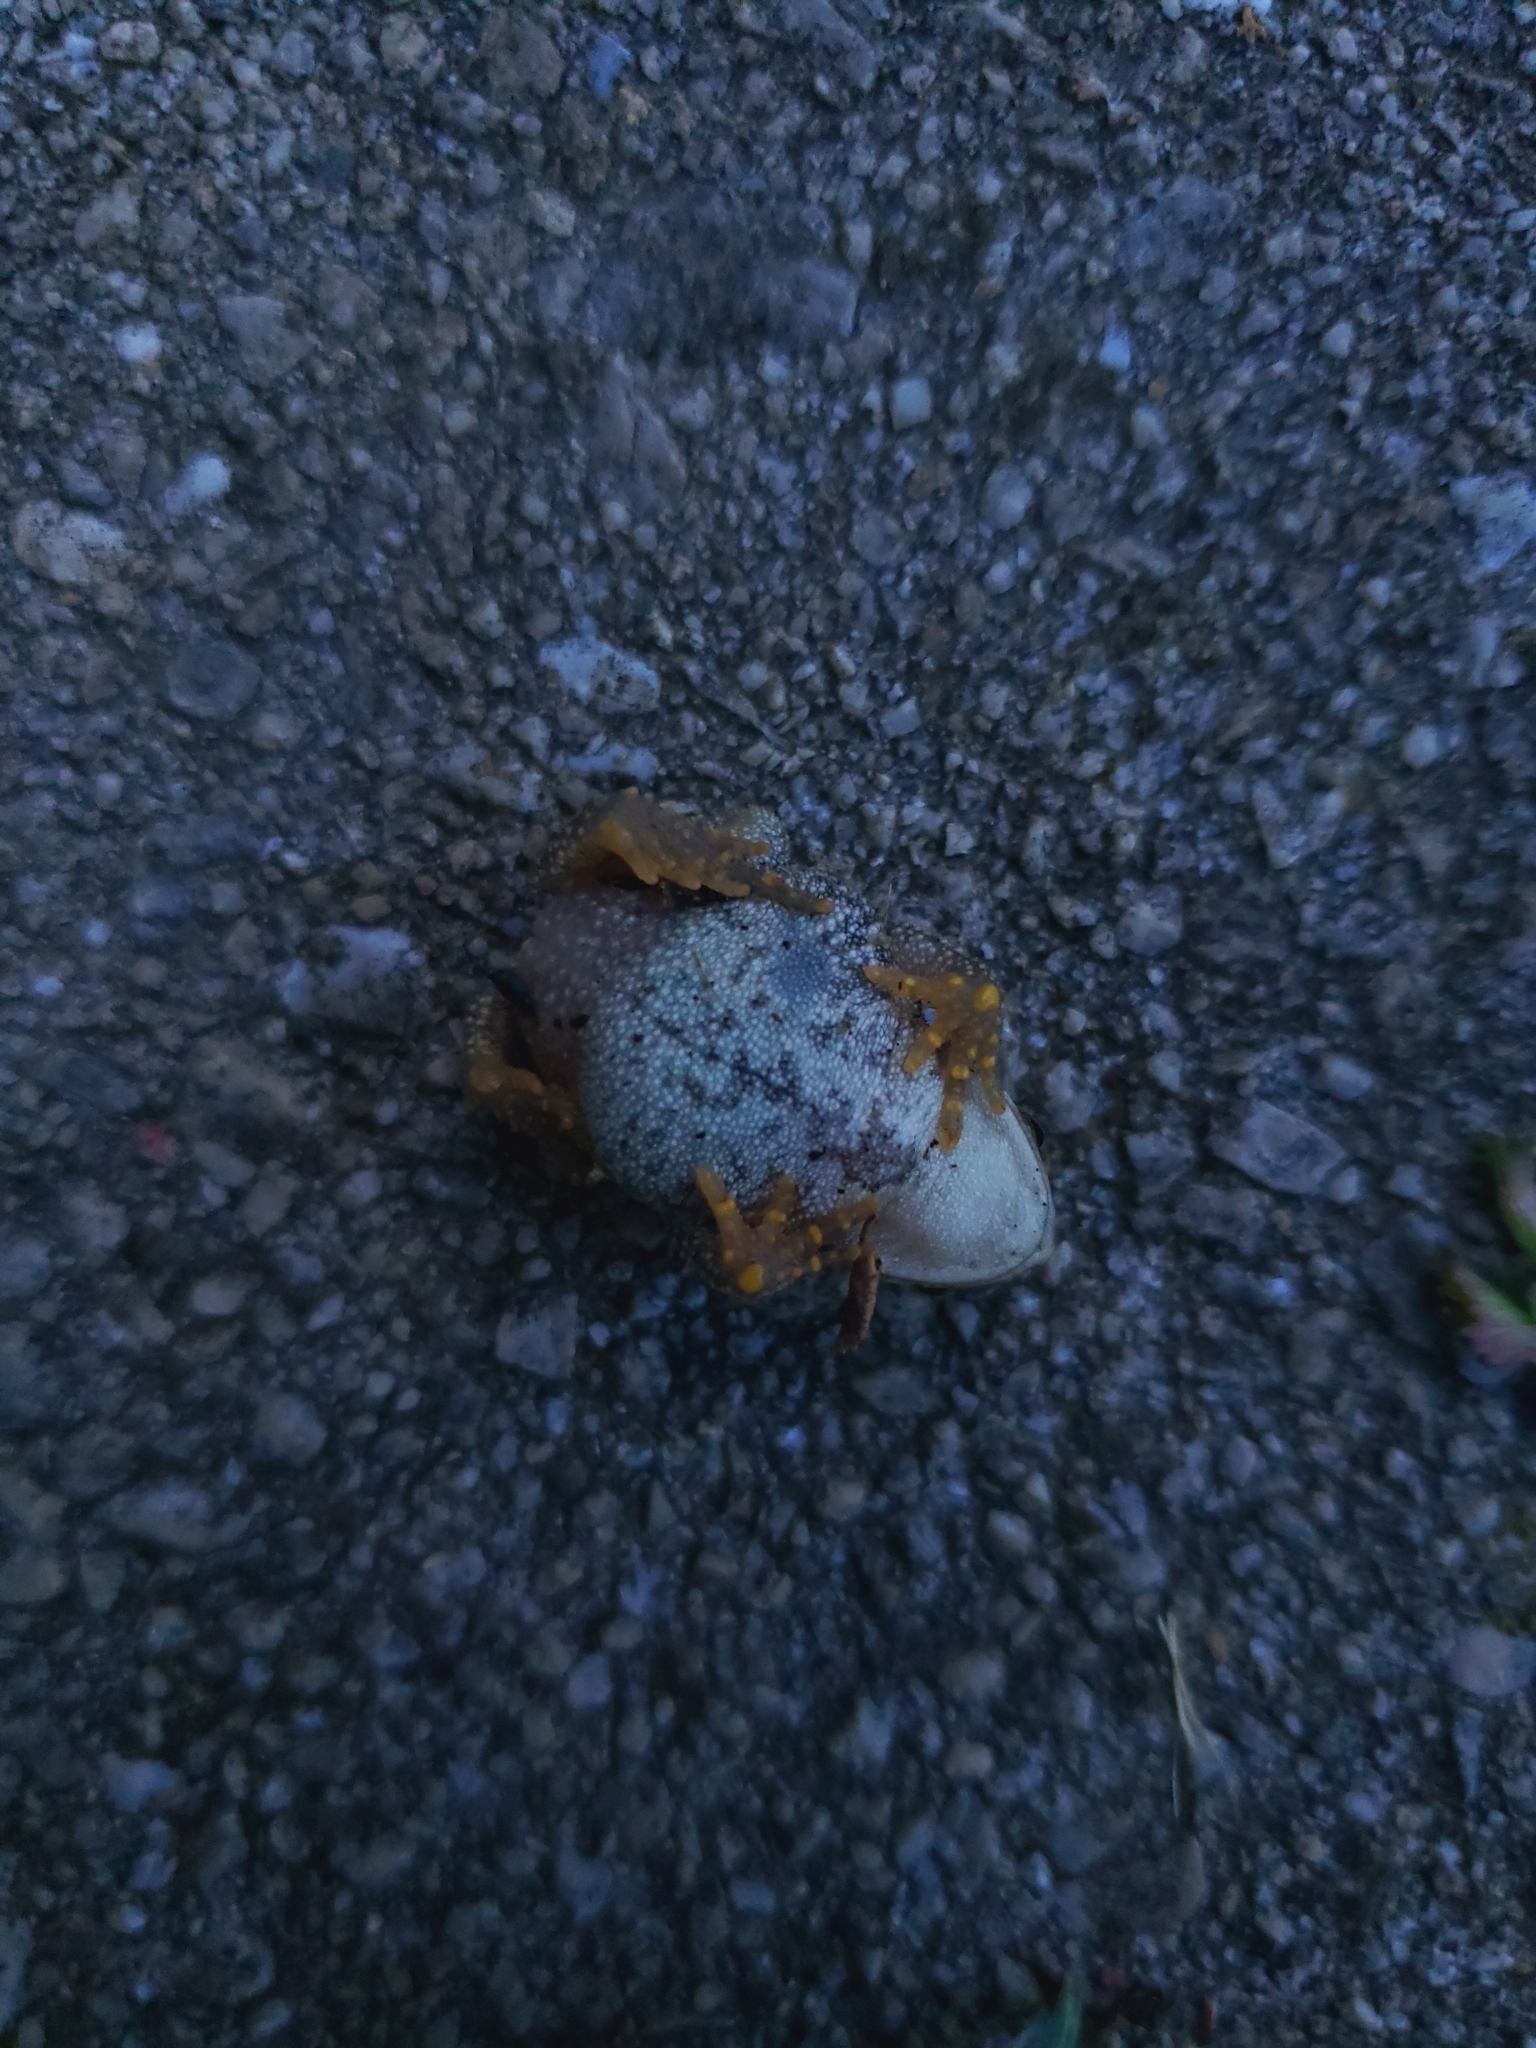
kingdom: Animalia
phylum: Chordata
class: Amphibia
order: Anura
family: Bufonidae
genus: Anaxyrus
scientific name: Anaxyrus americanus
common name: American toad
